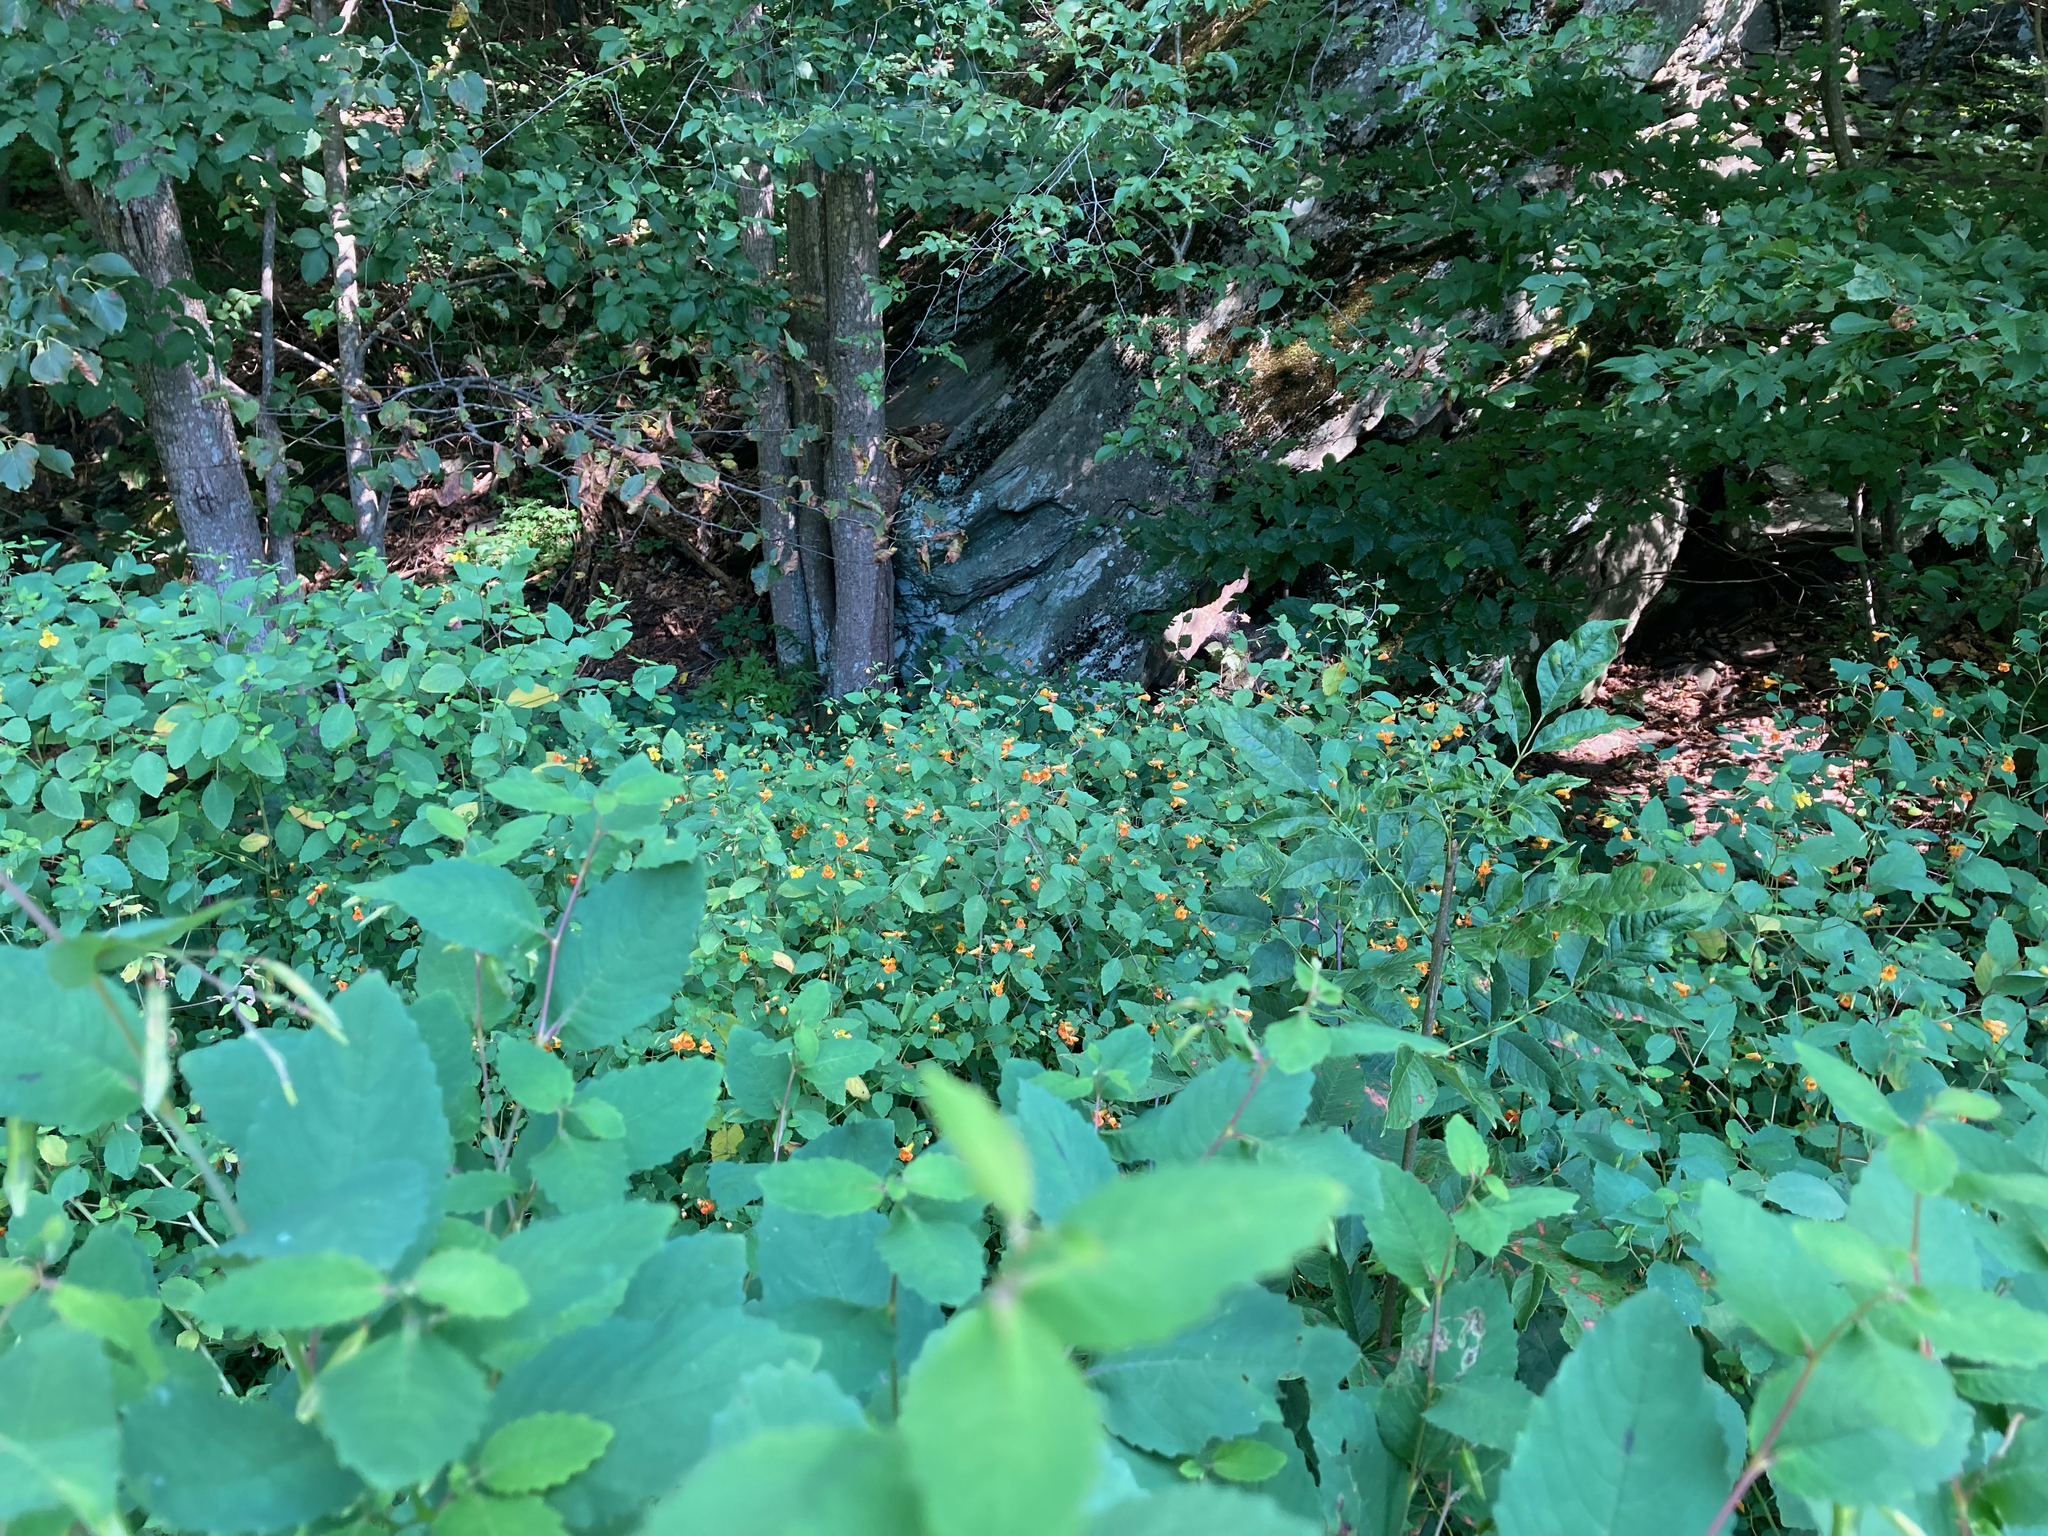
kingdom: Plantae
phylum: Tracheophyta
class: Magnoliopsida
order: Ericales
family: Balsaminaceae
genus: Impatiens
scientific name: Impatiens capensis
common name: Orange balsam
